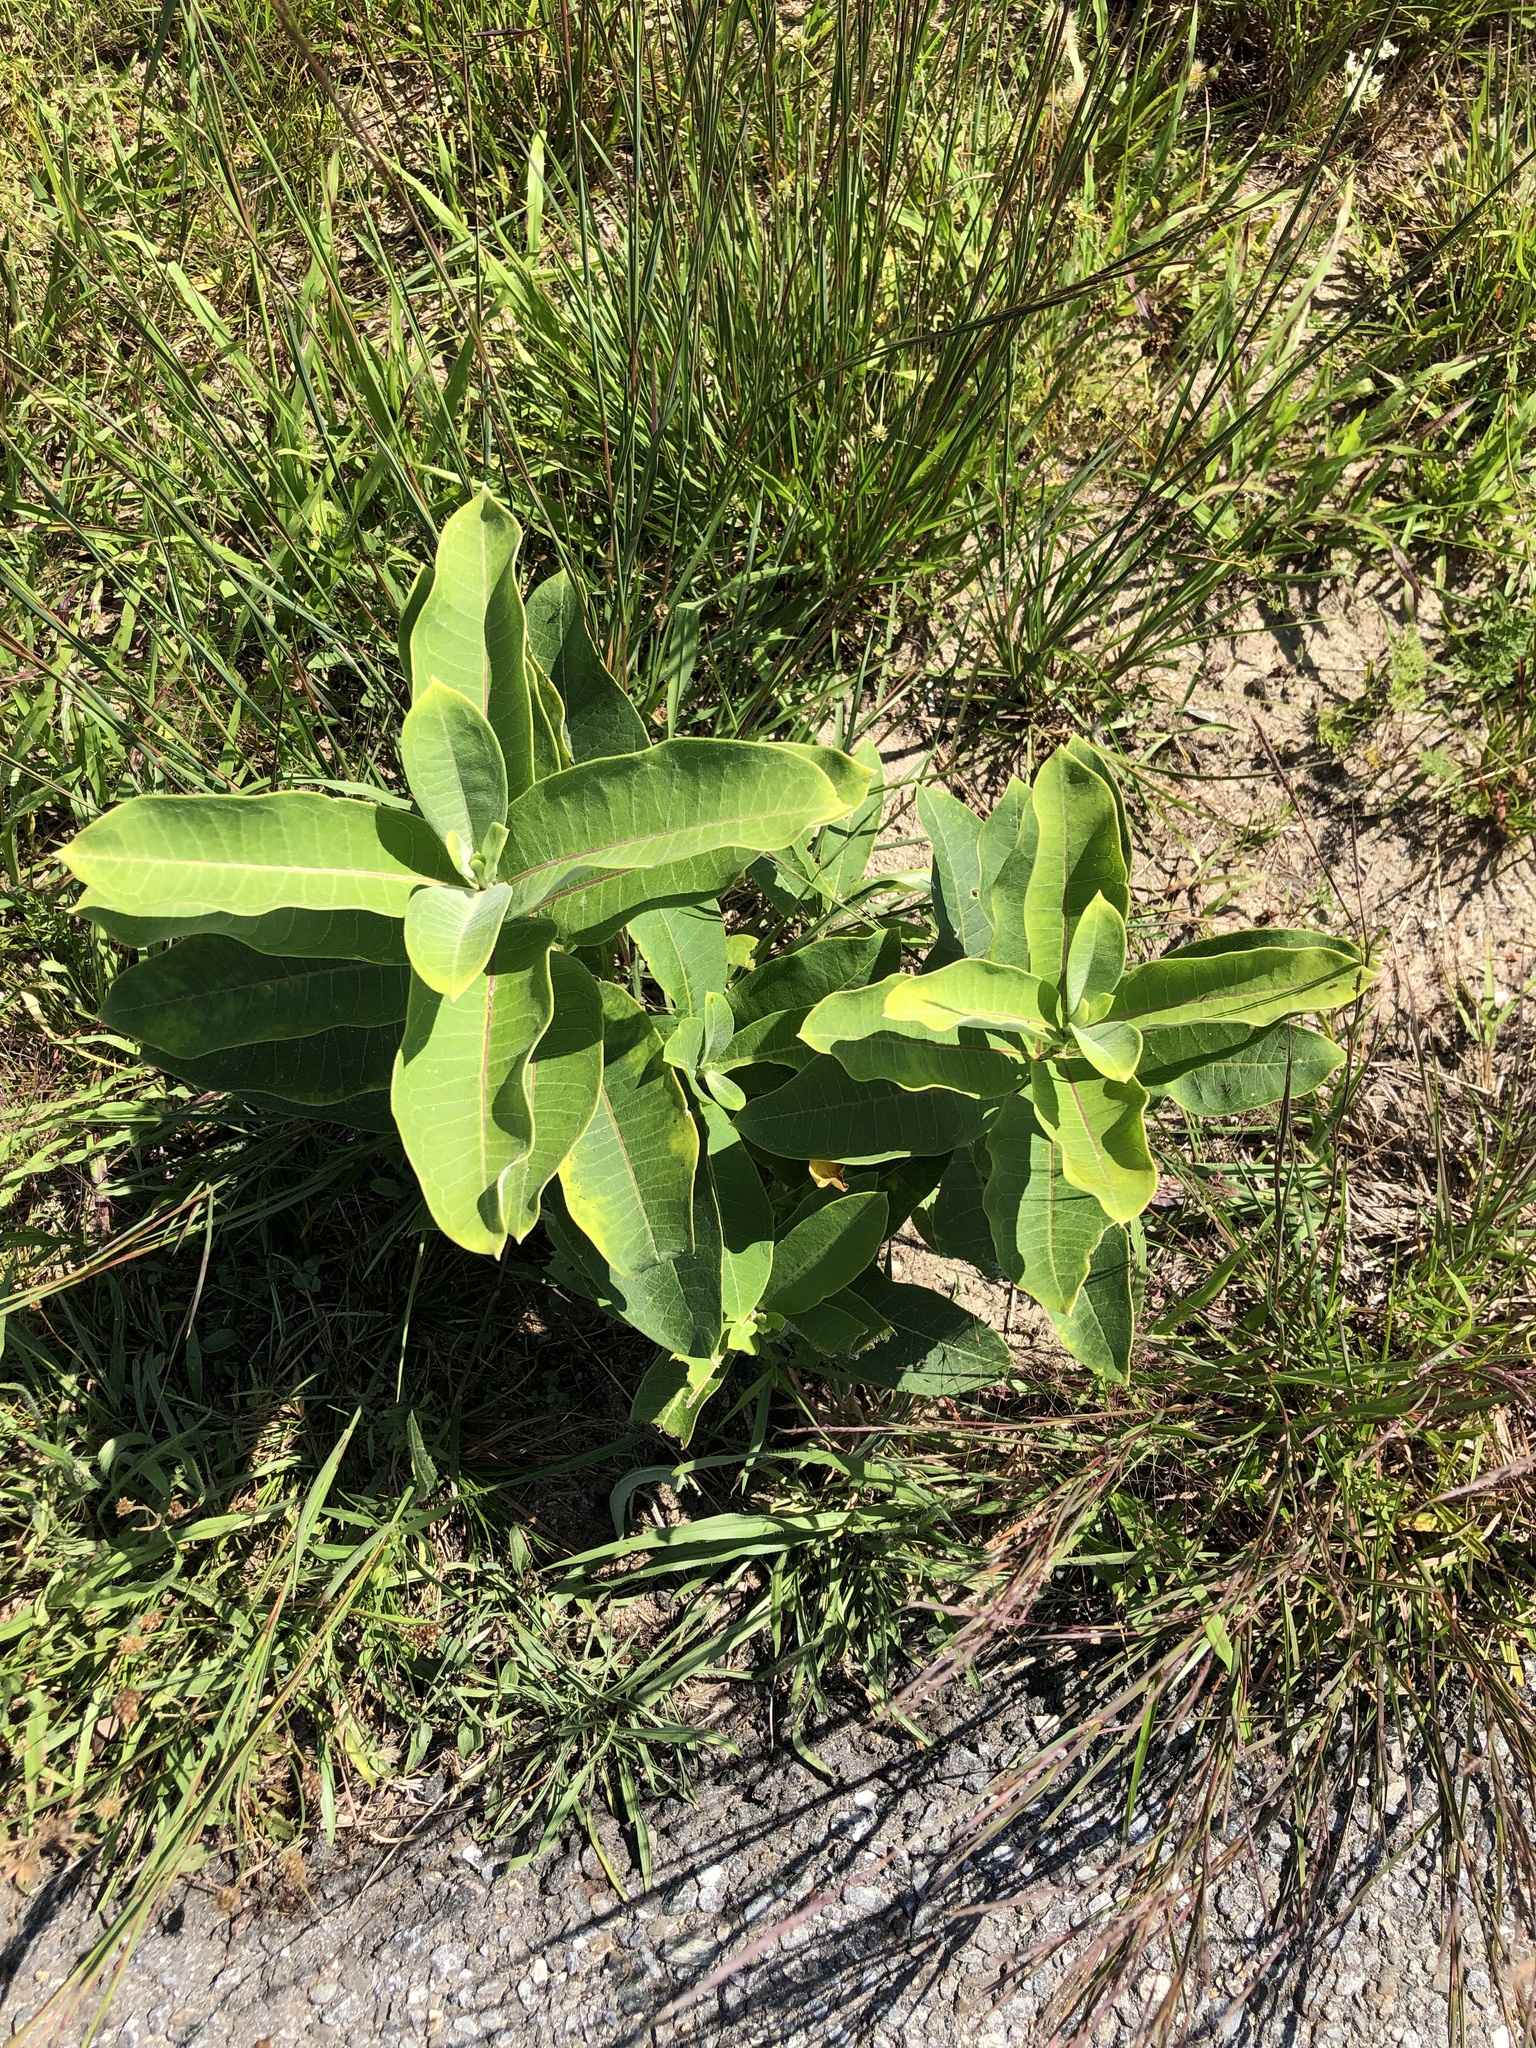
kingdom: Plantae
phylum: Tracheophyta
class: Magnoliopsida
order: Gentianales
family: Apocynaceae
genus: Asclepias
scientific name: Asclepias syriaca
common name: Common milkweed
